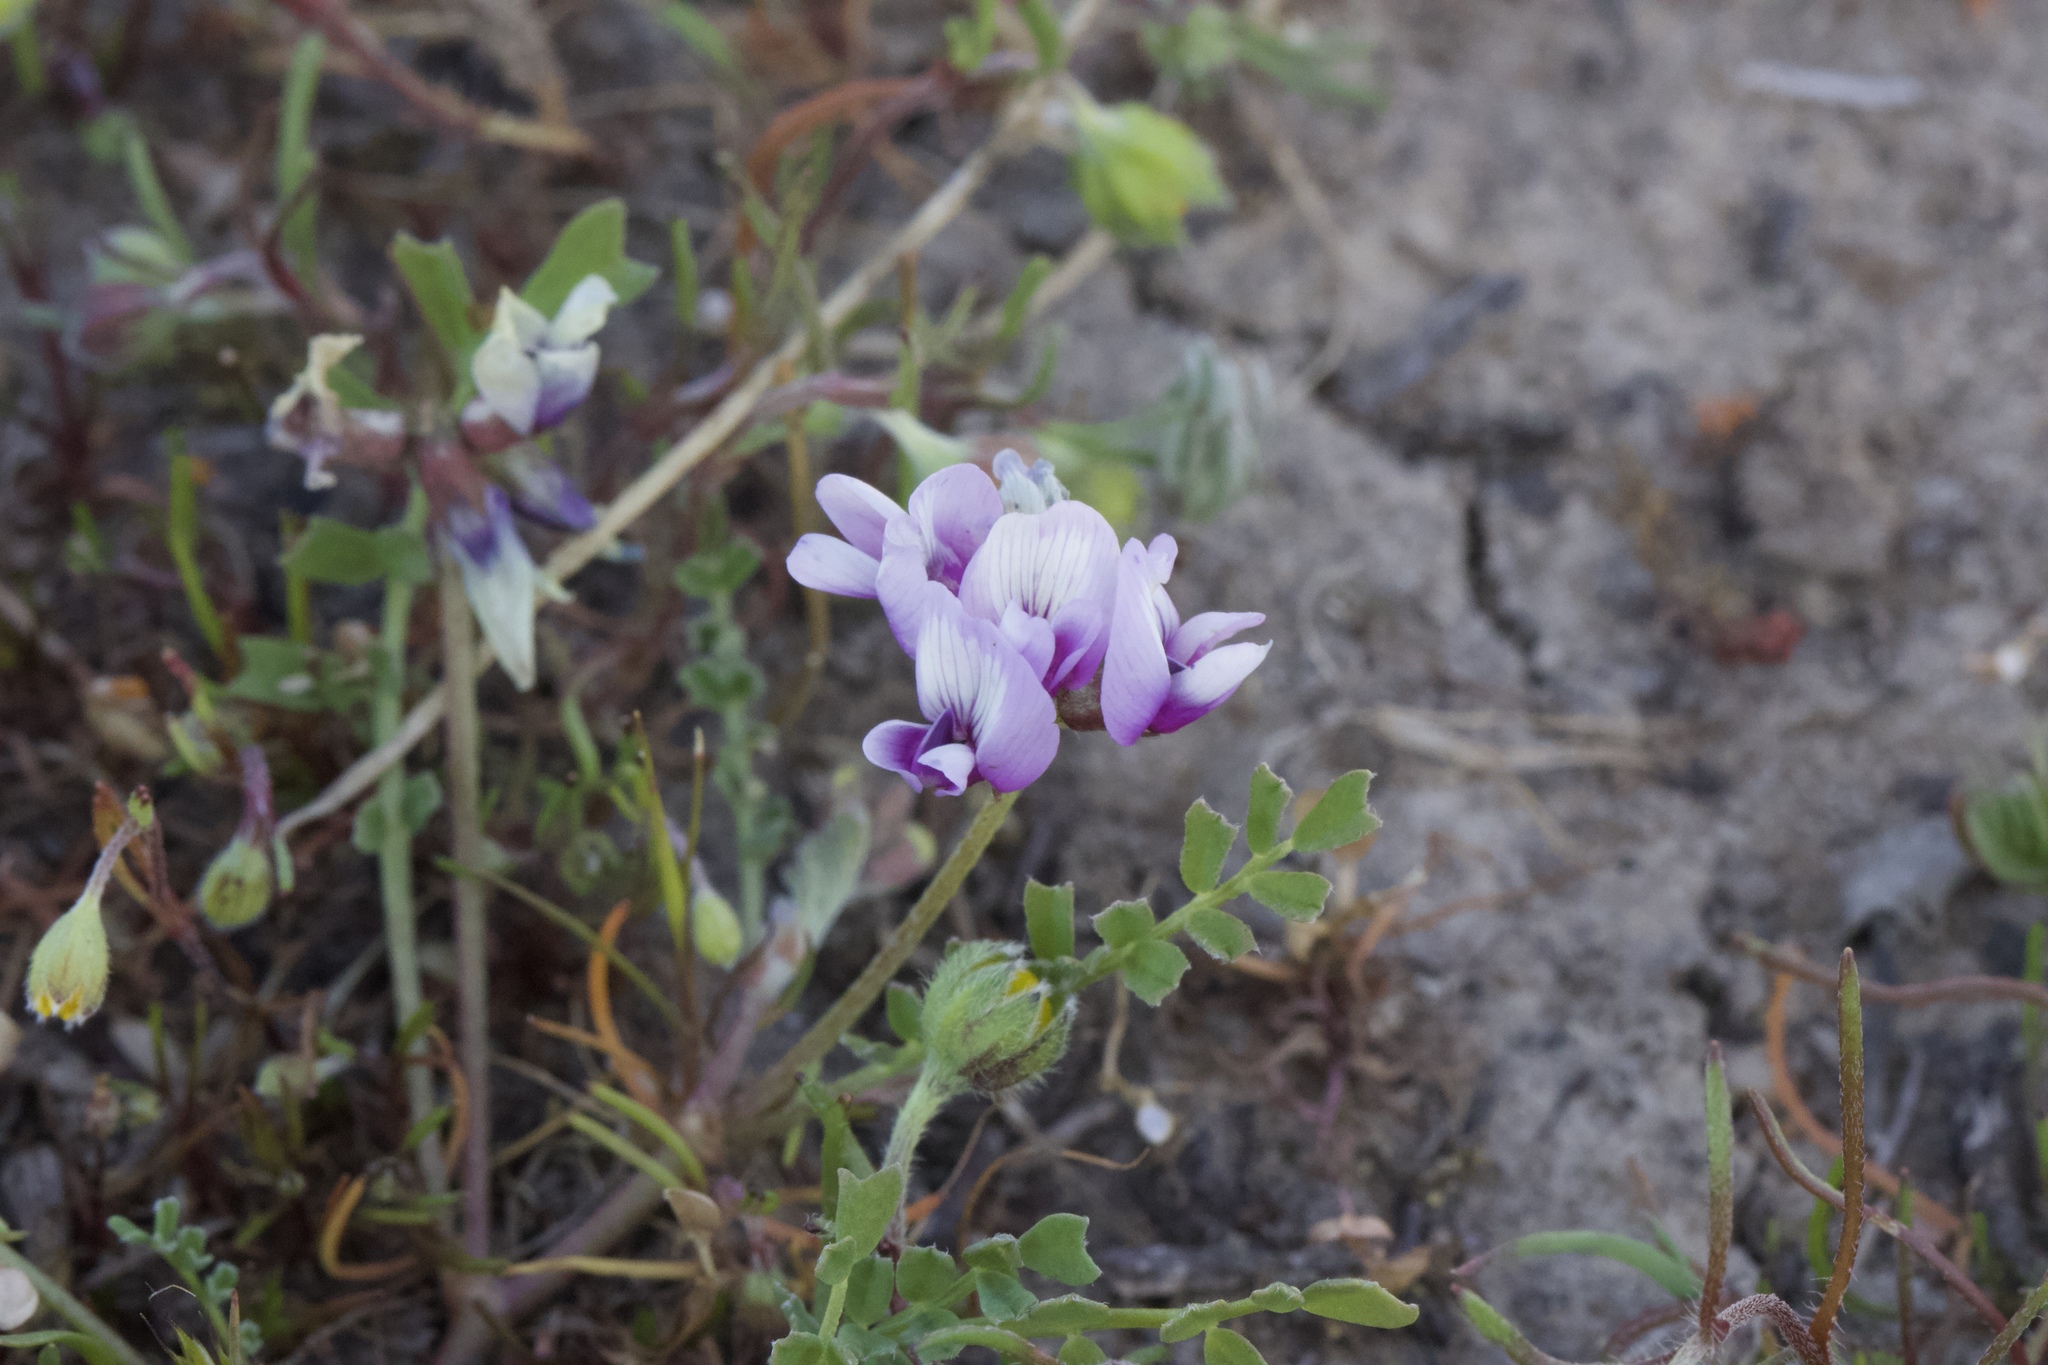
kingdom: Plantae
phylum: Tracheophyta
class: Magnoliopsida
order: Fabales
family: Fabaceae
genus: Astragalus
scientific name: Astragalus tener
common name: Gray slender milkvetch
